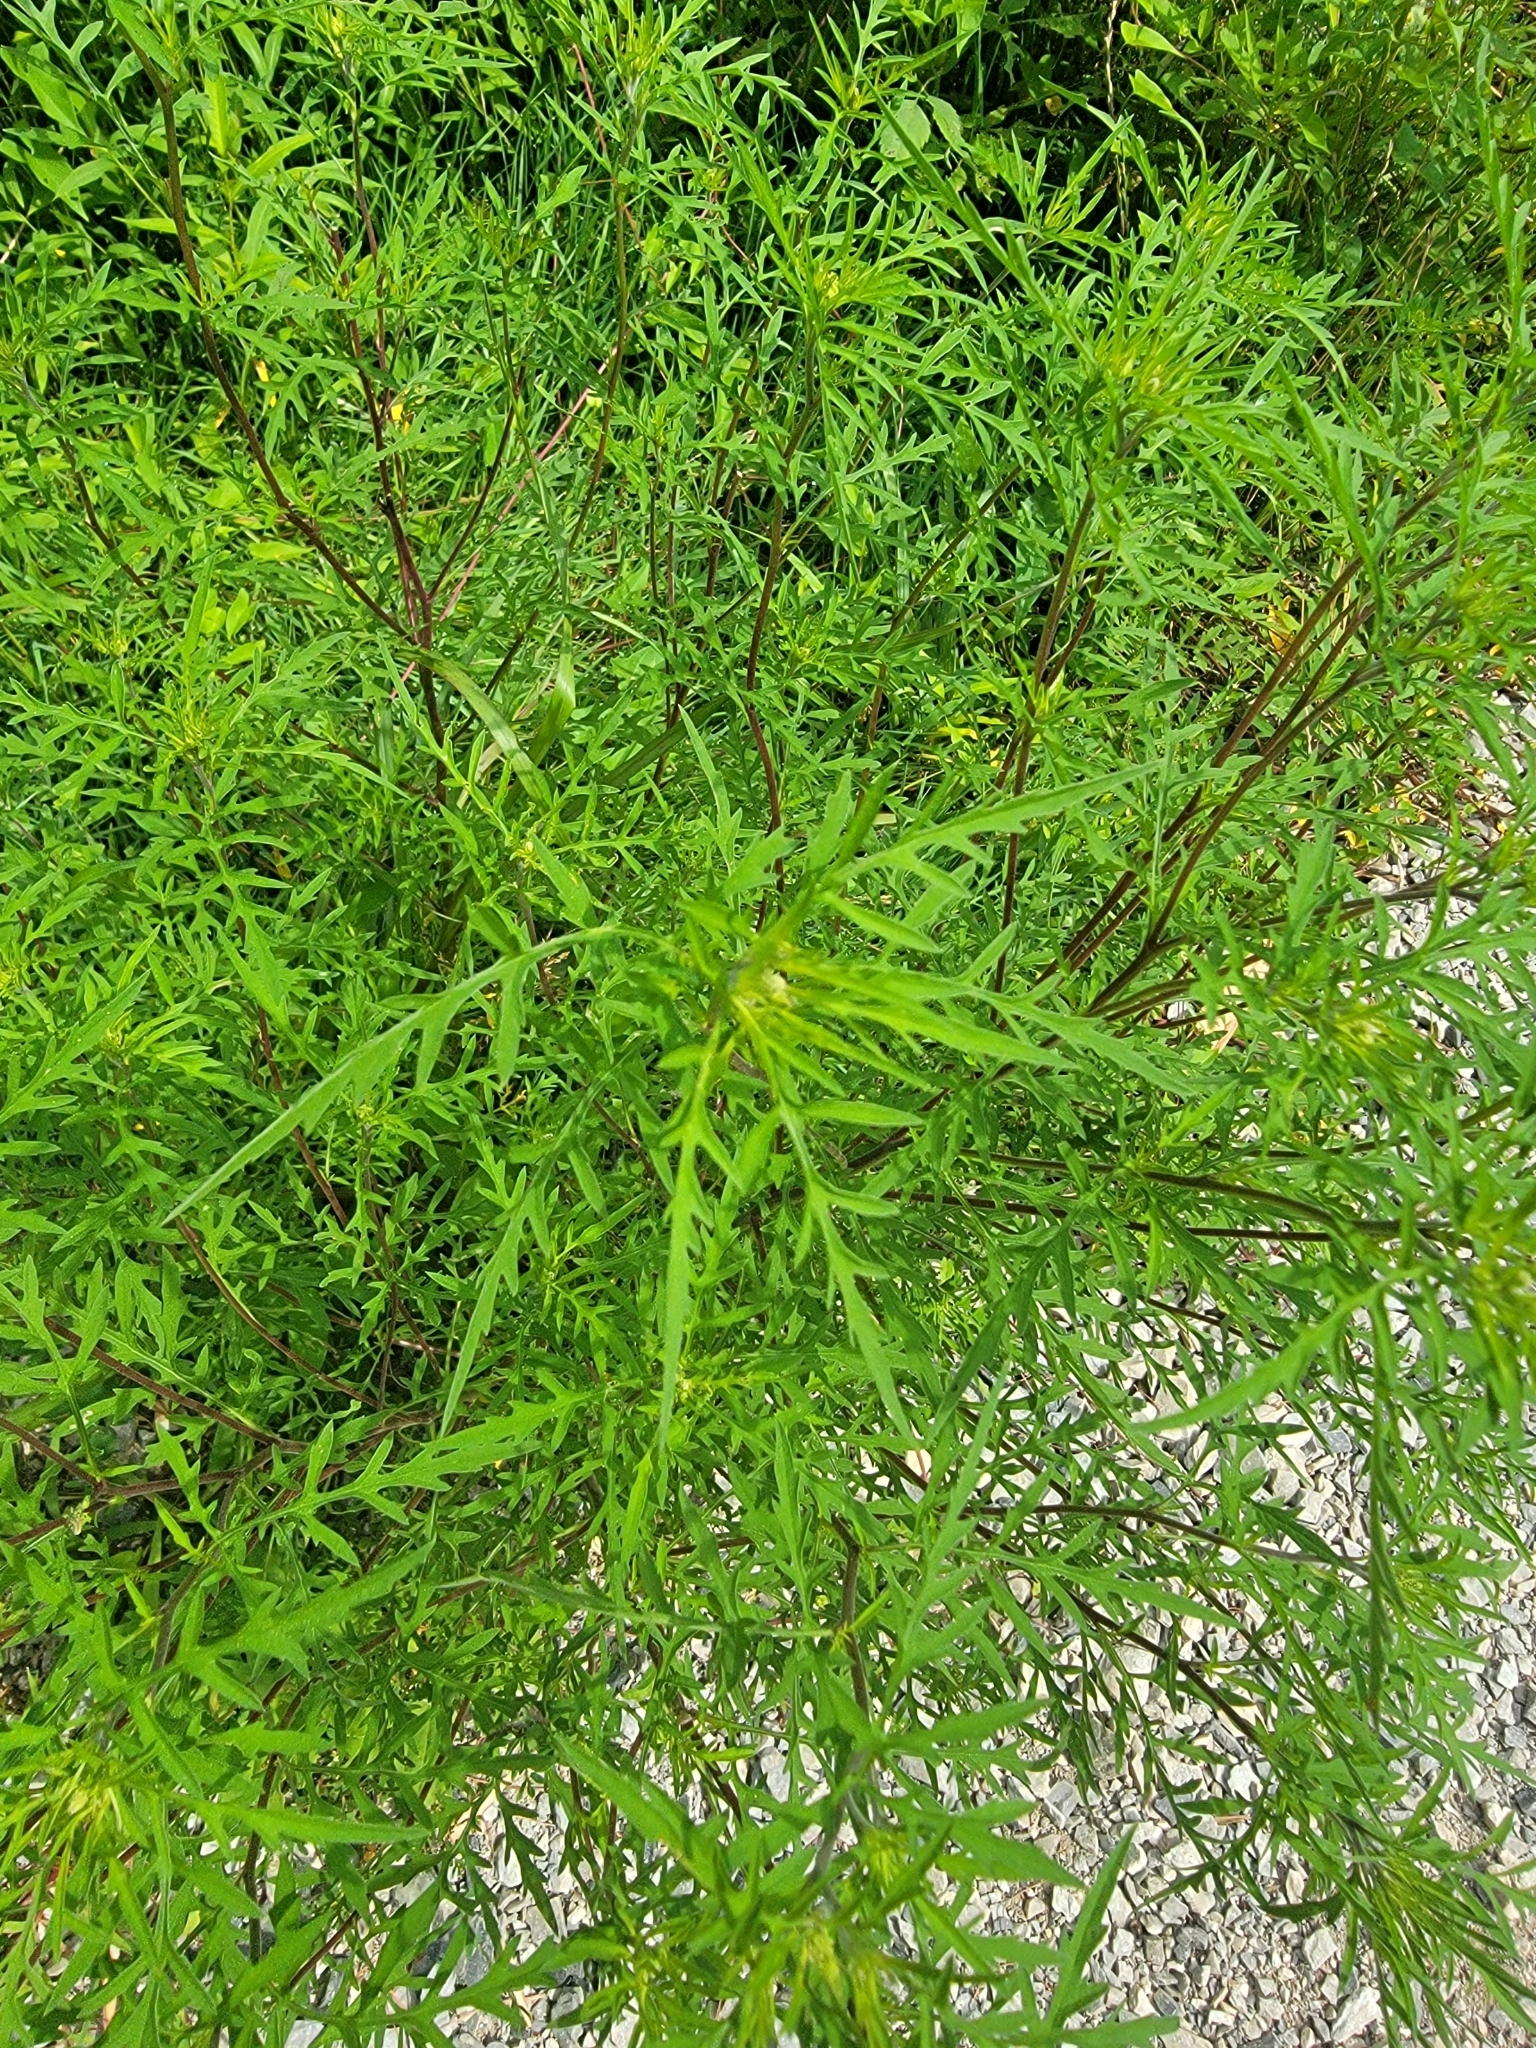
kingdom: Plantae
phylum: Tracheophyta
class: Magnoliopsida
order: Asterales
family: Asteraceae
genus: Ambrosia
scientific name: Ambrosia artemisiifolia
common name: Annual ragweed
